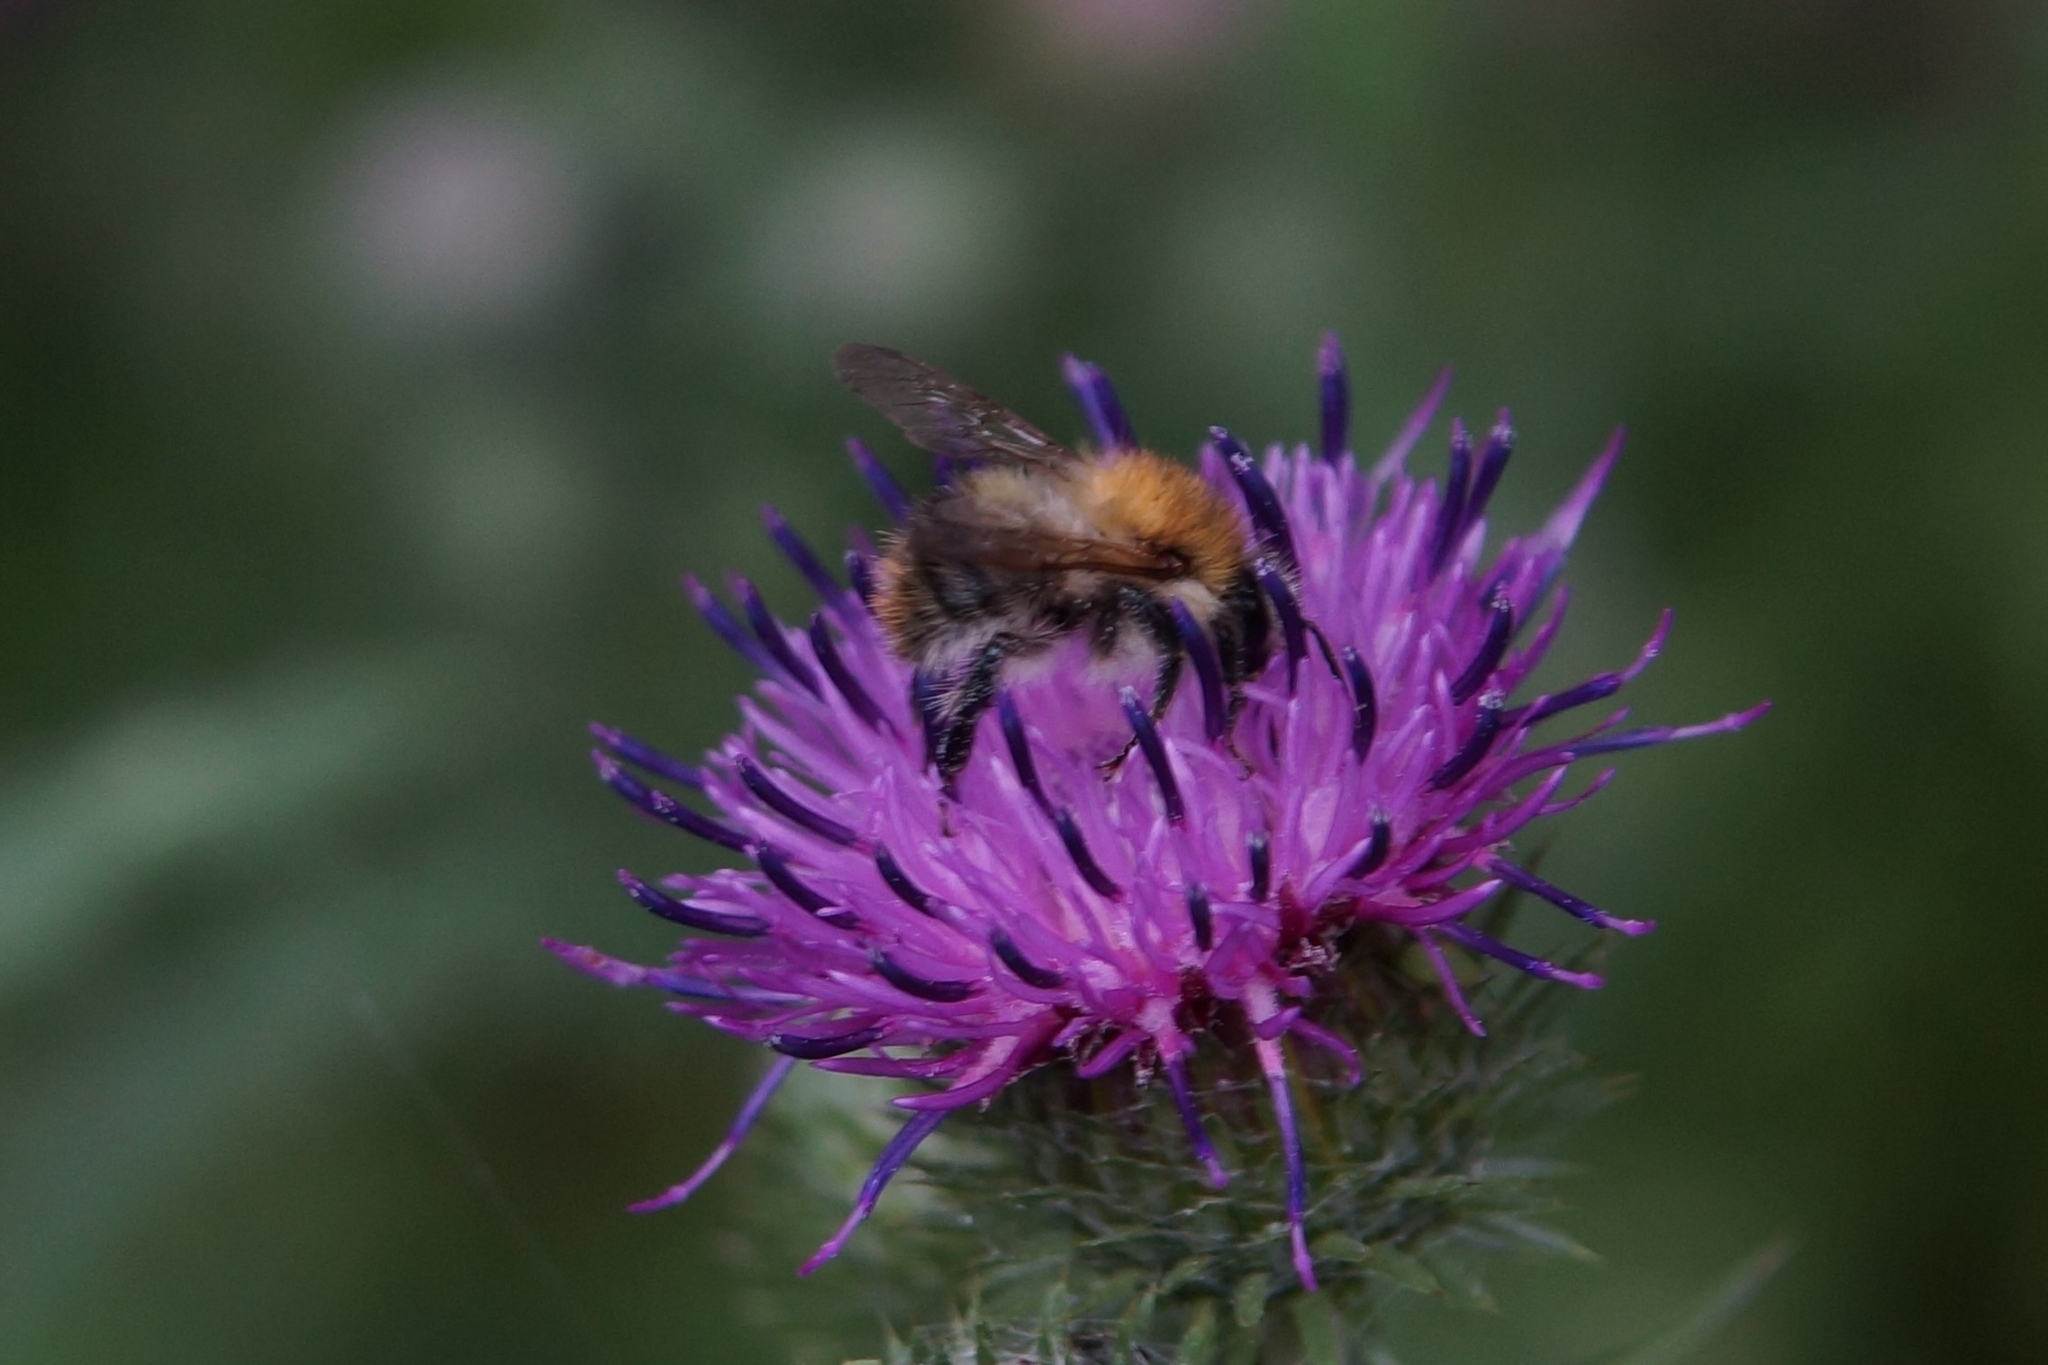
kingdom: Animalia
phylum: Arthropoda
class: Insecta
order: Hymenoptera
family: Apidae
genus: Bombus
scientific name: Bombus pascuorum
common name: Common carder bee
